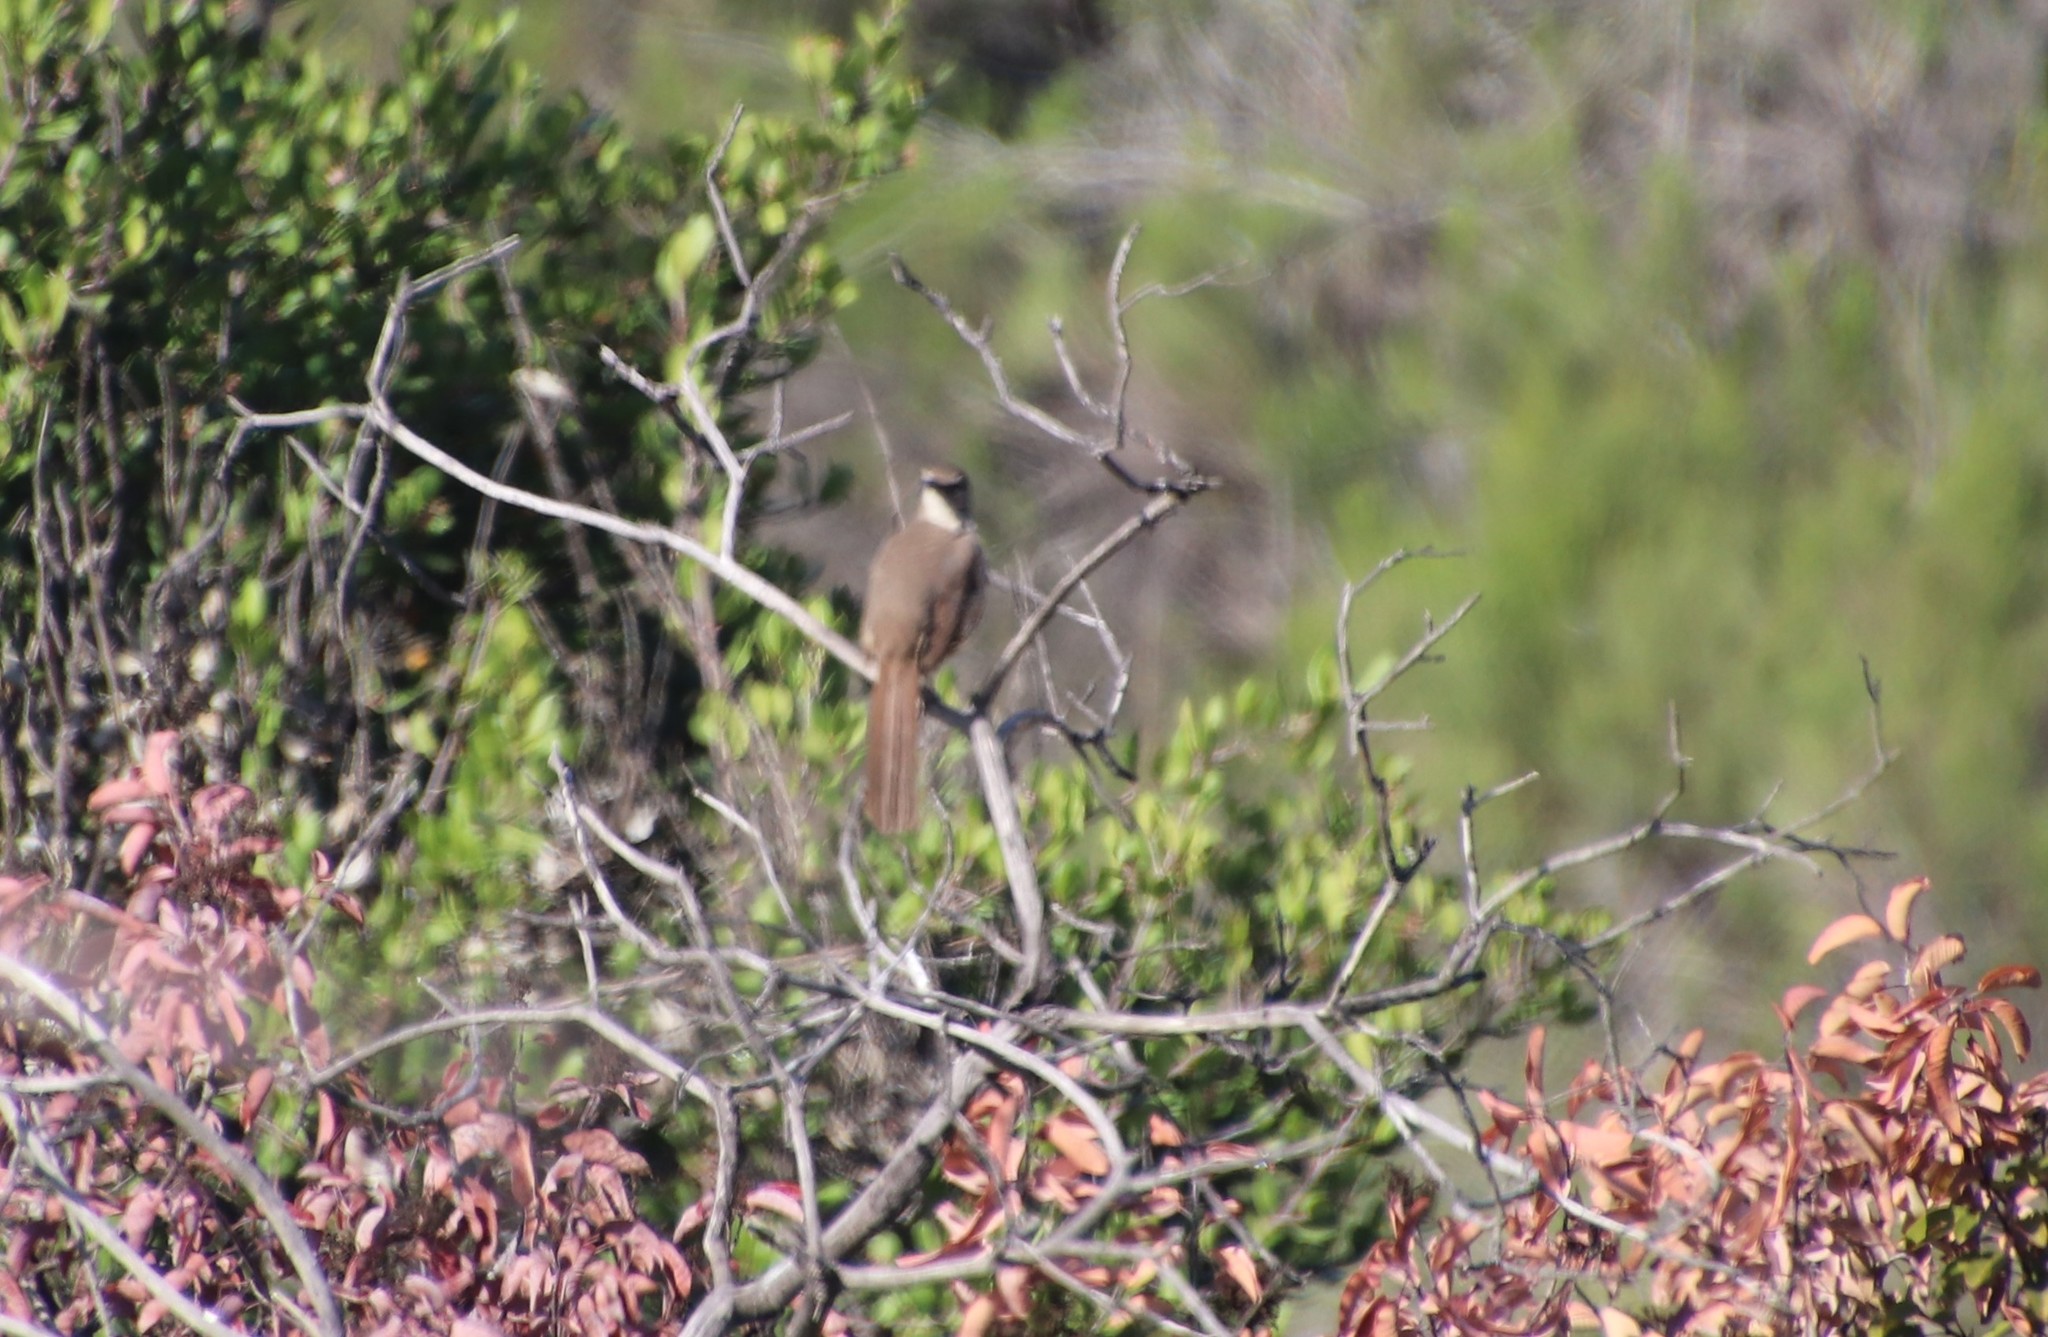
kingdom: Animalia
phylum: Chordata
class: Aves
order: Passeriformes
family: Mimidae
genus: Toxostoma
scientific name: Toxostoma redivivum
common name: California thrasher
